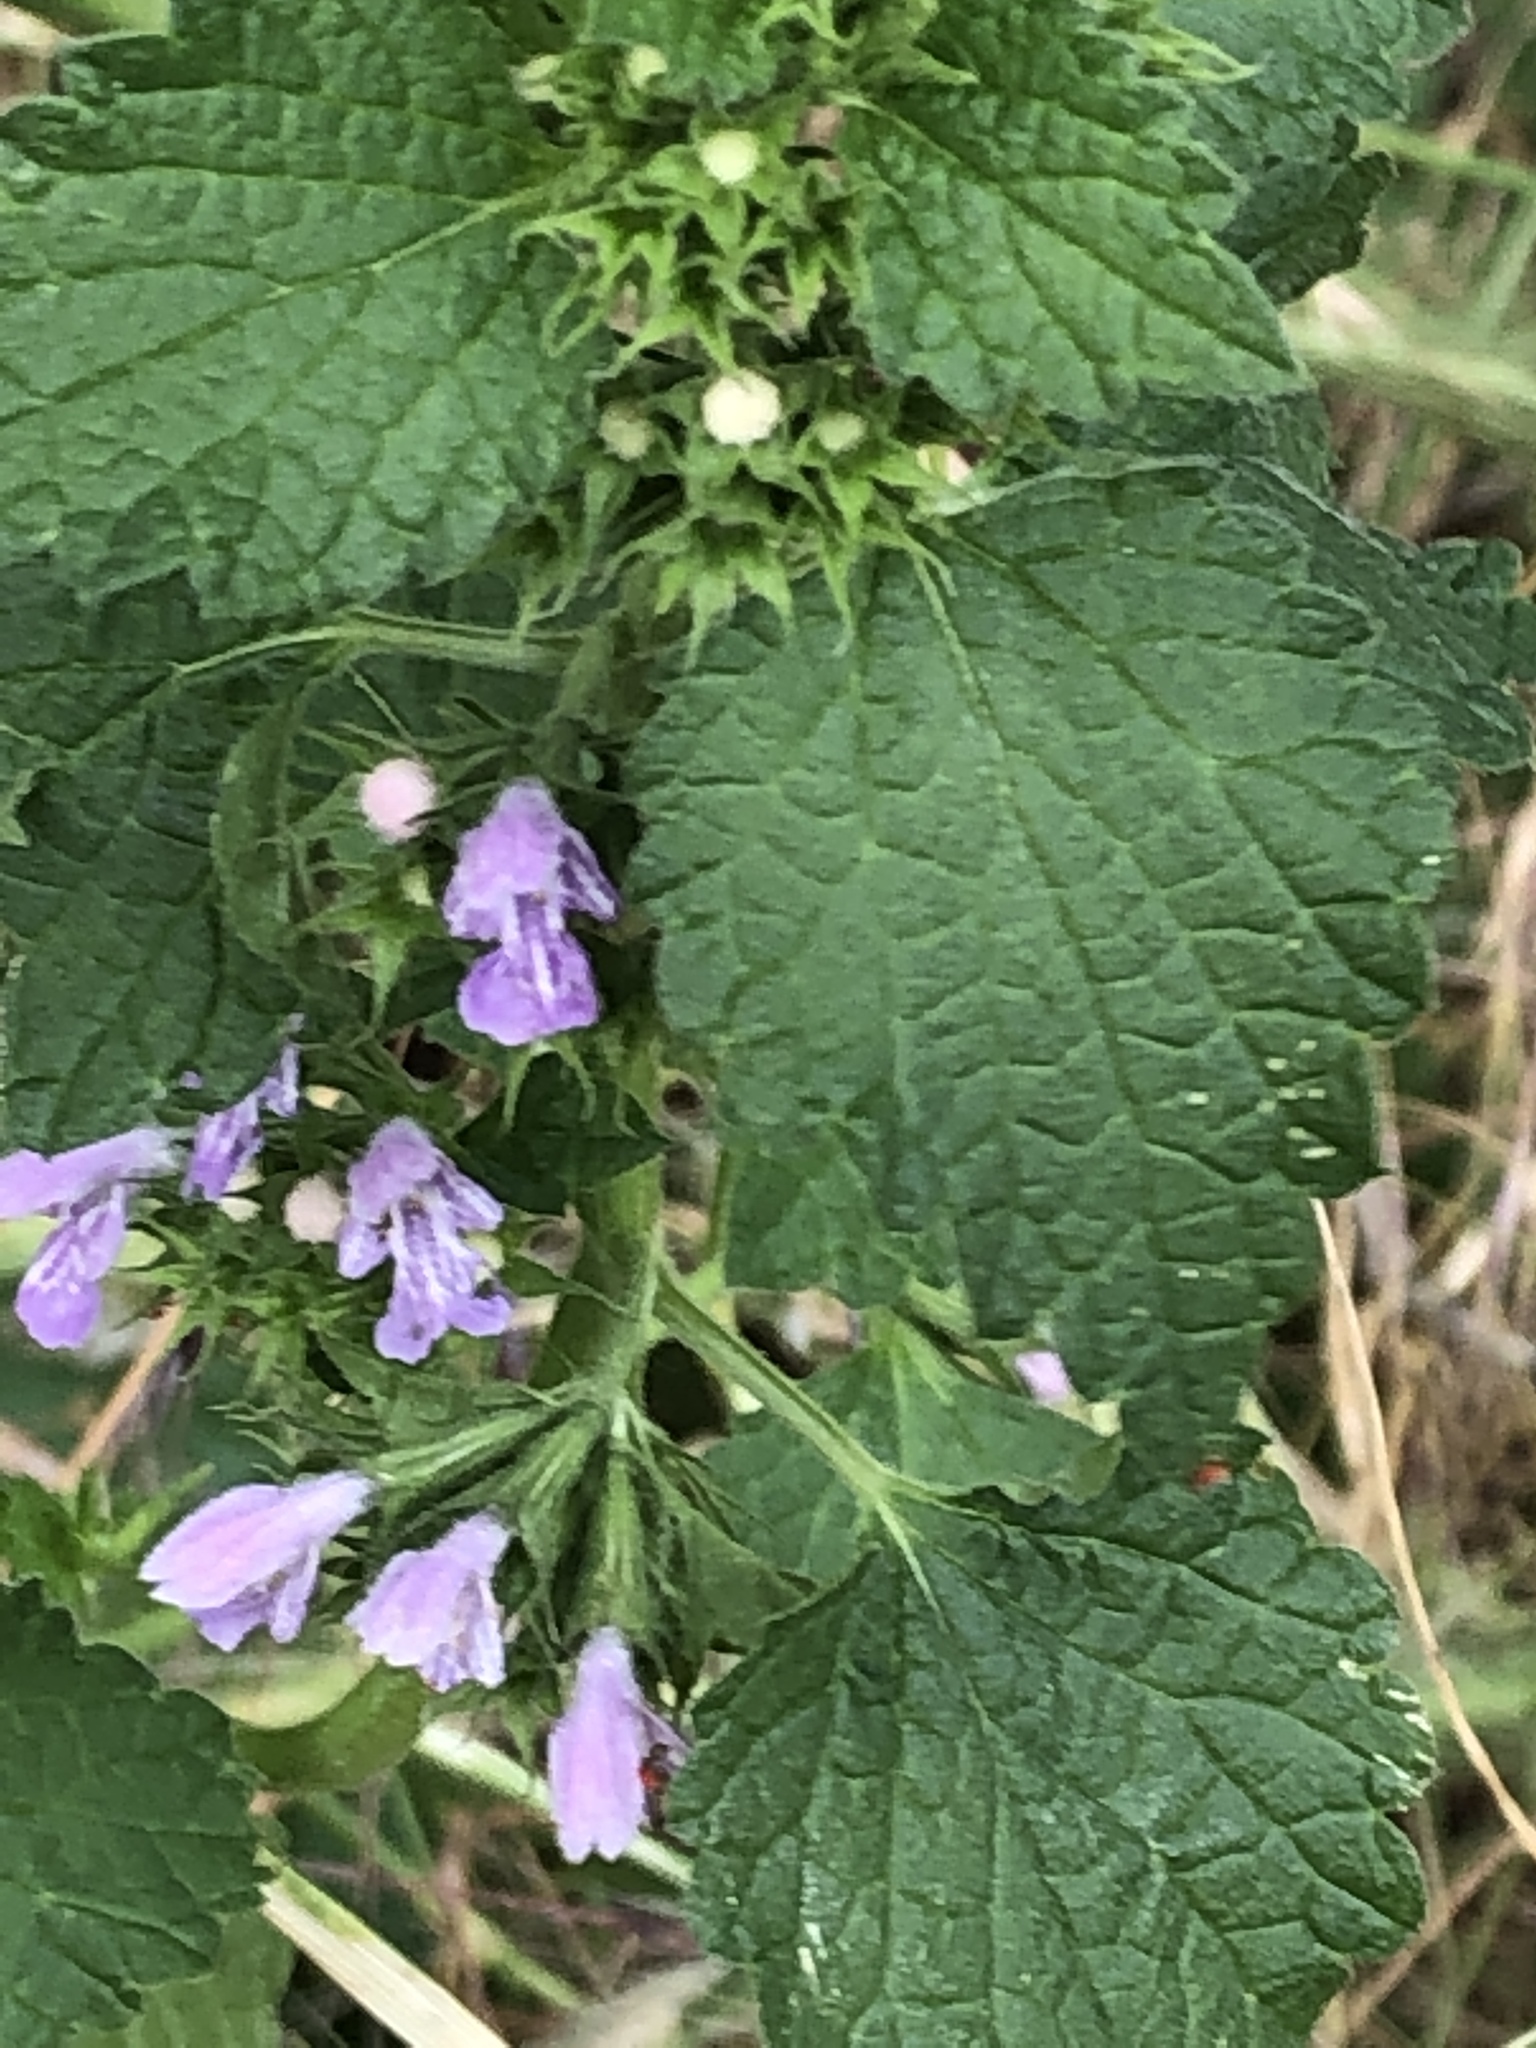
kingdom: Plantae
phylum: Tracheophyta
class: Magnoliopsida
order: Lamiales
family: Lamiaceae
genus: Ballota
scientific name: Ballota nigra
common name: Black horehound
